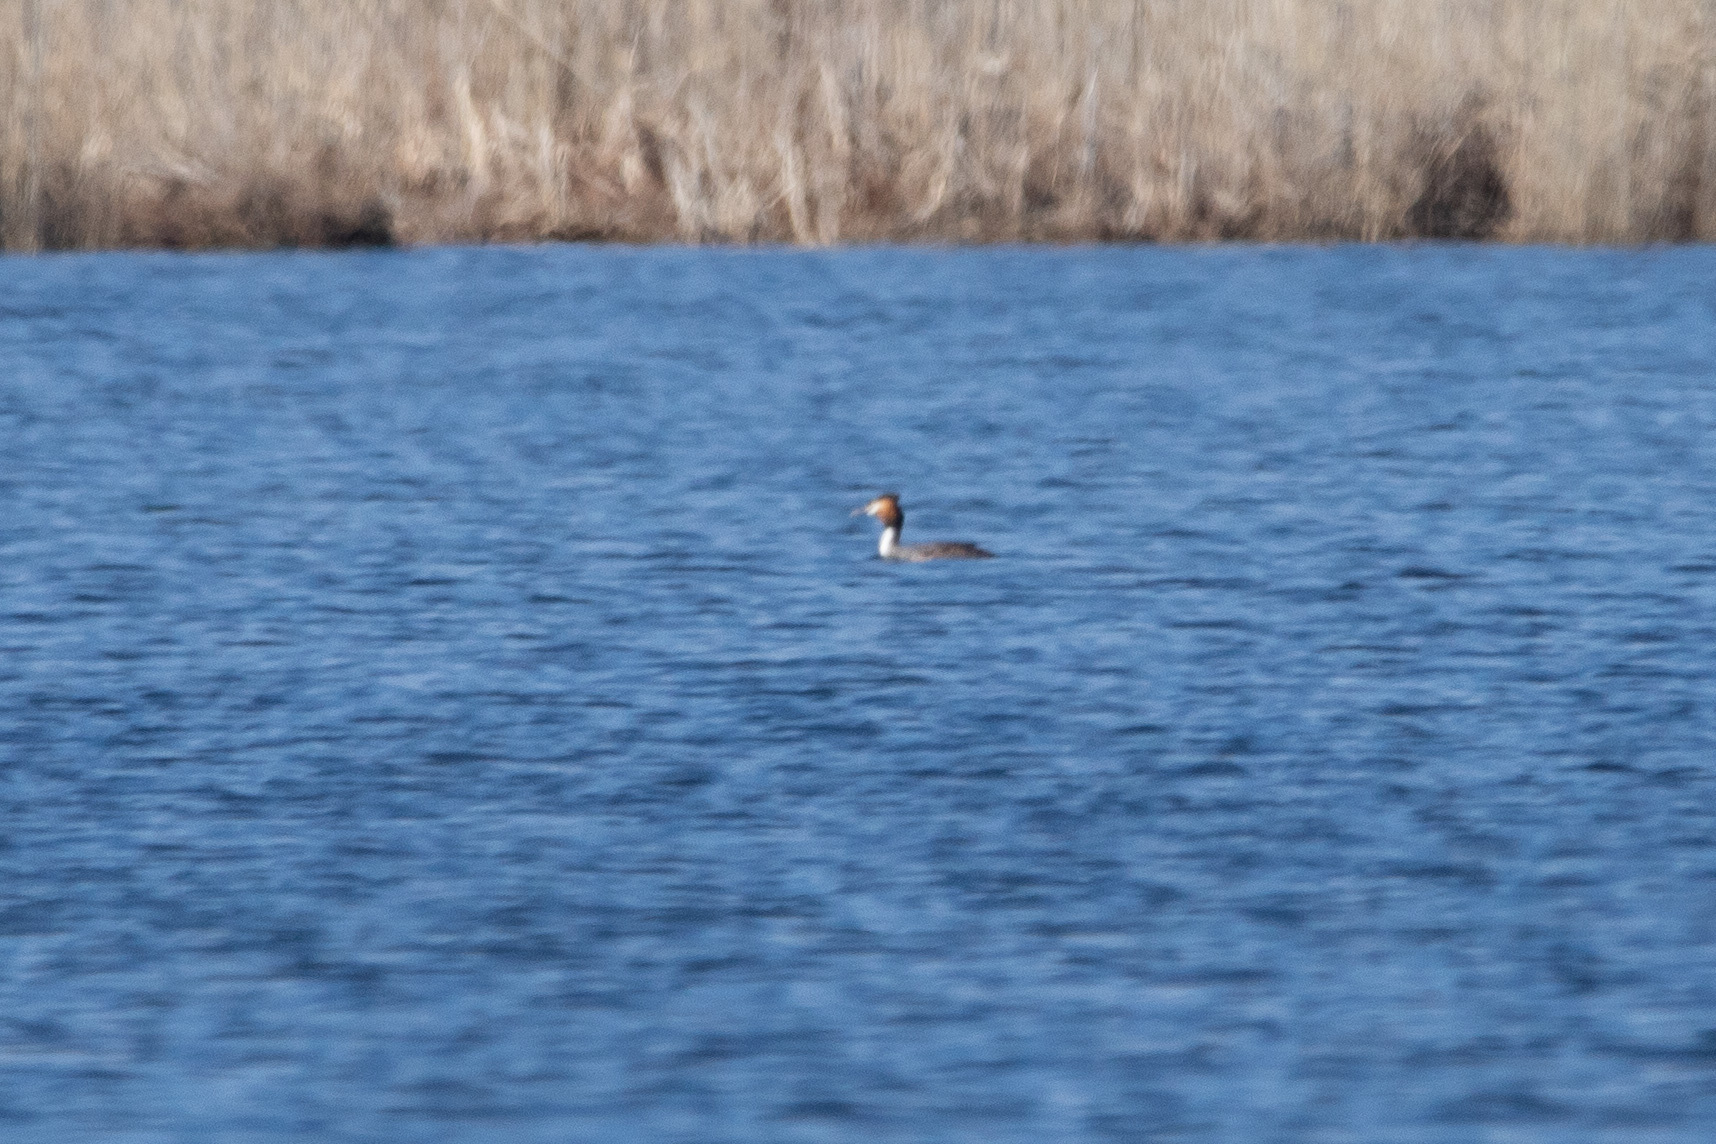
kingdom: Animalia
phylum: Chordata
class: Aves
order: Podicipediformes
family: Podicipedidae
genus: Podiceps
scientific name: Podiceps cristatus
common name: Great crested grebe
